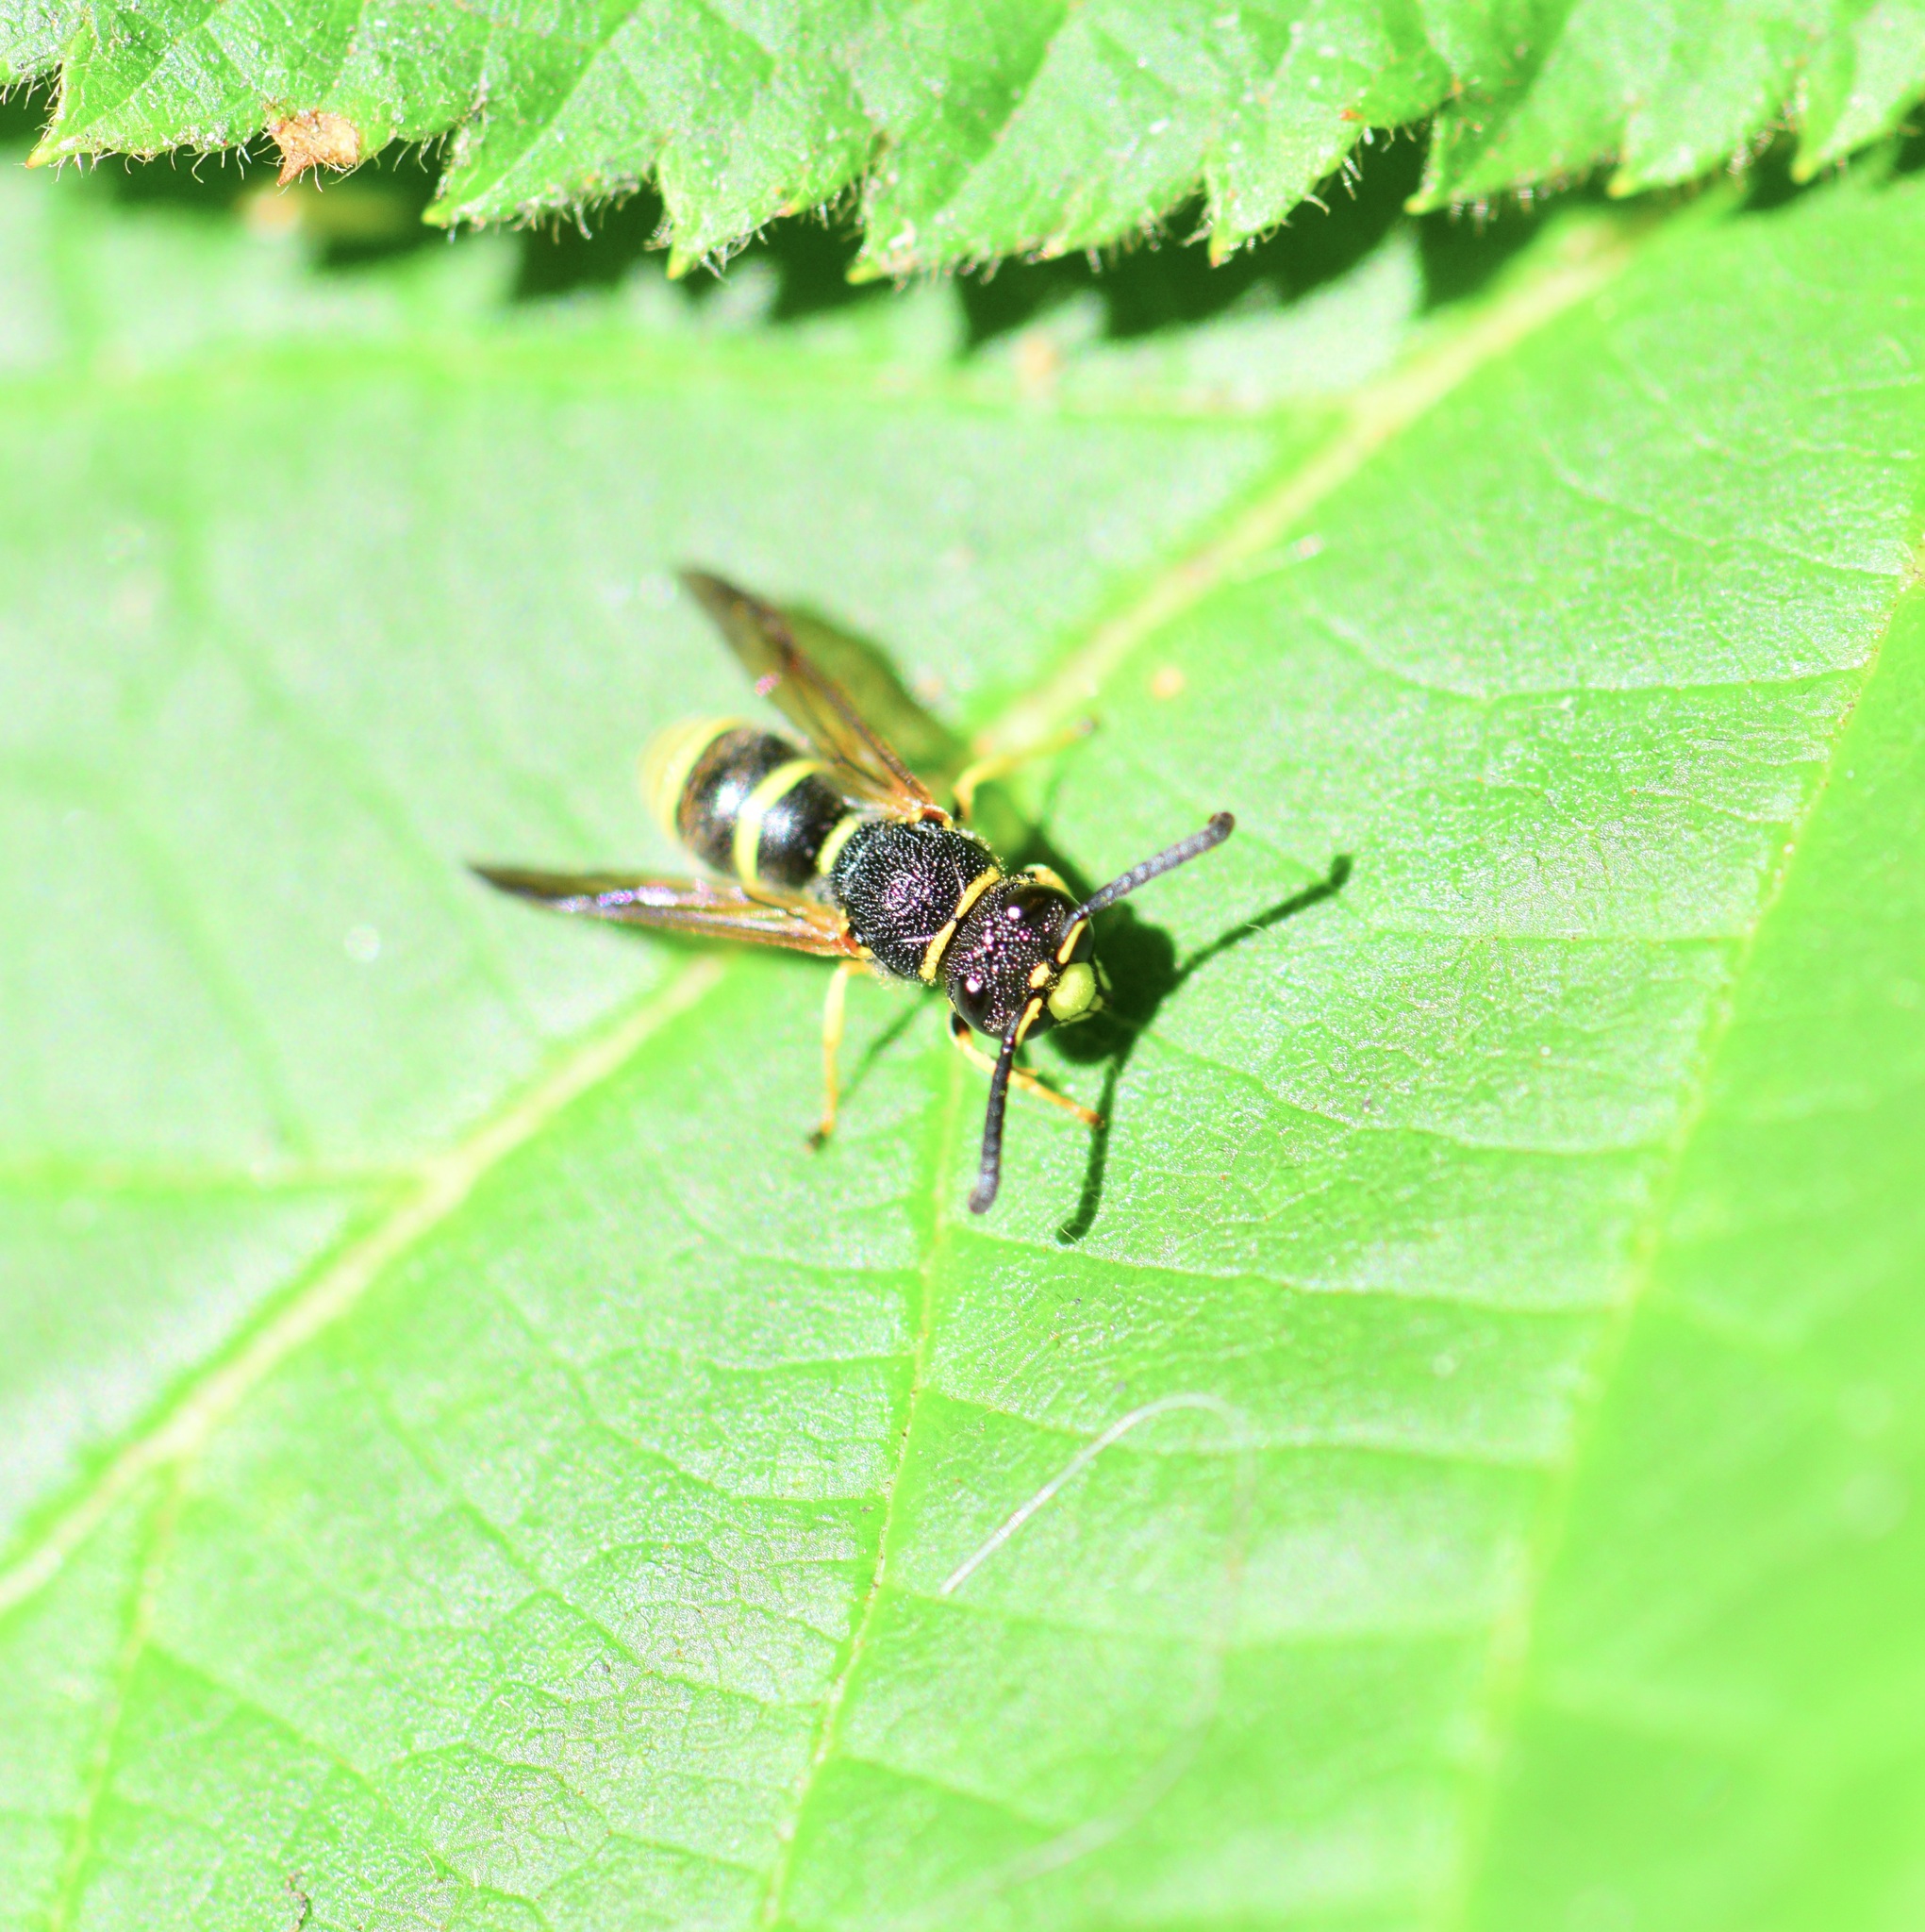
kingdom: Animalia
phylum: Arthropoda
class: Insecta
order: Hymenoptera
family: Eumenidae
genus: Euodynerus
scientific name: Euodynerus foraminatus
